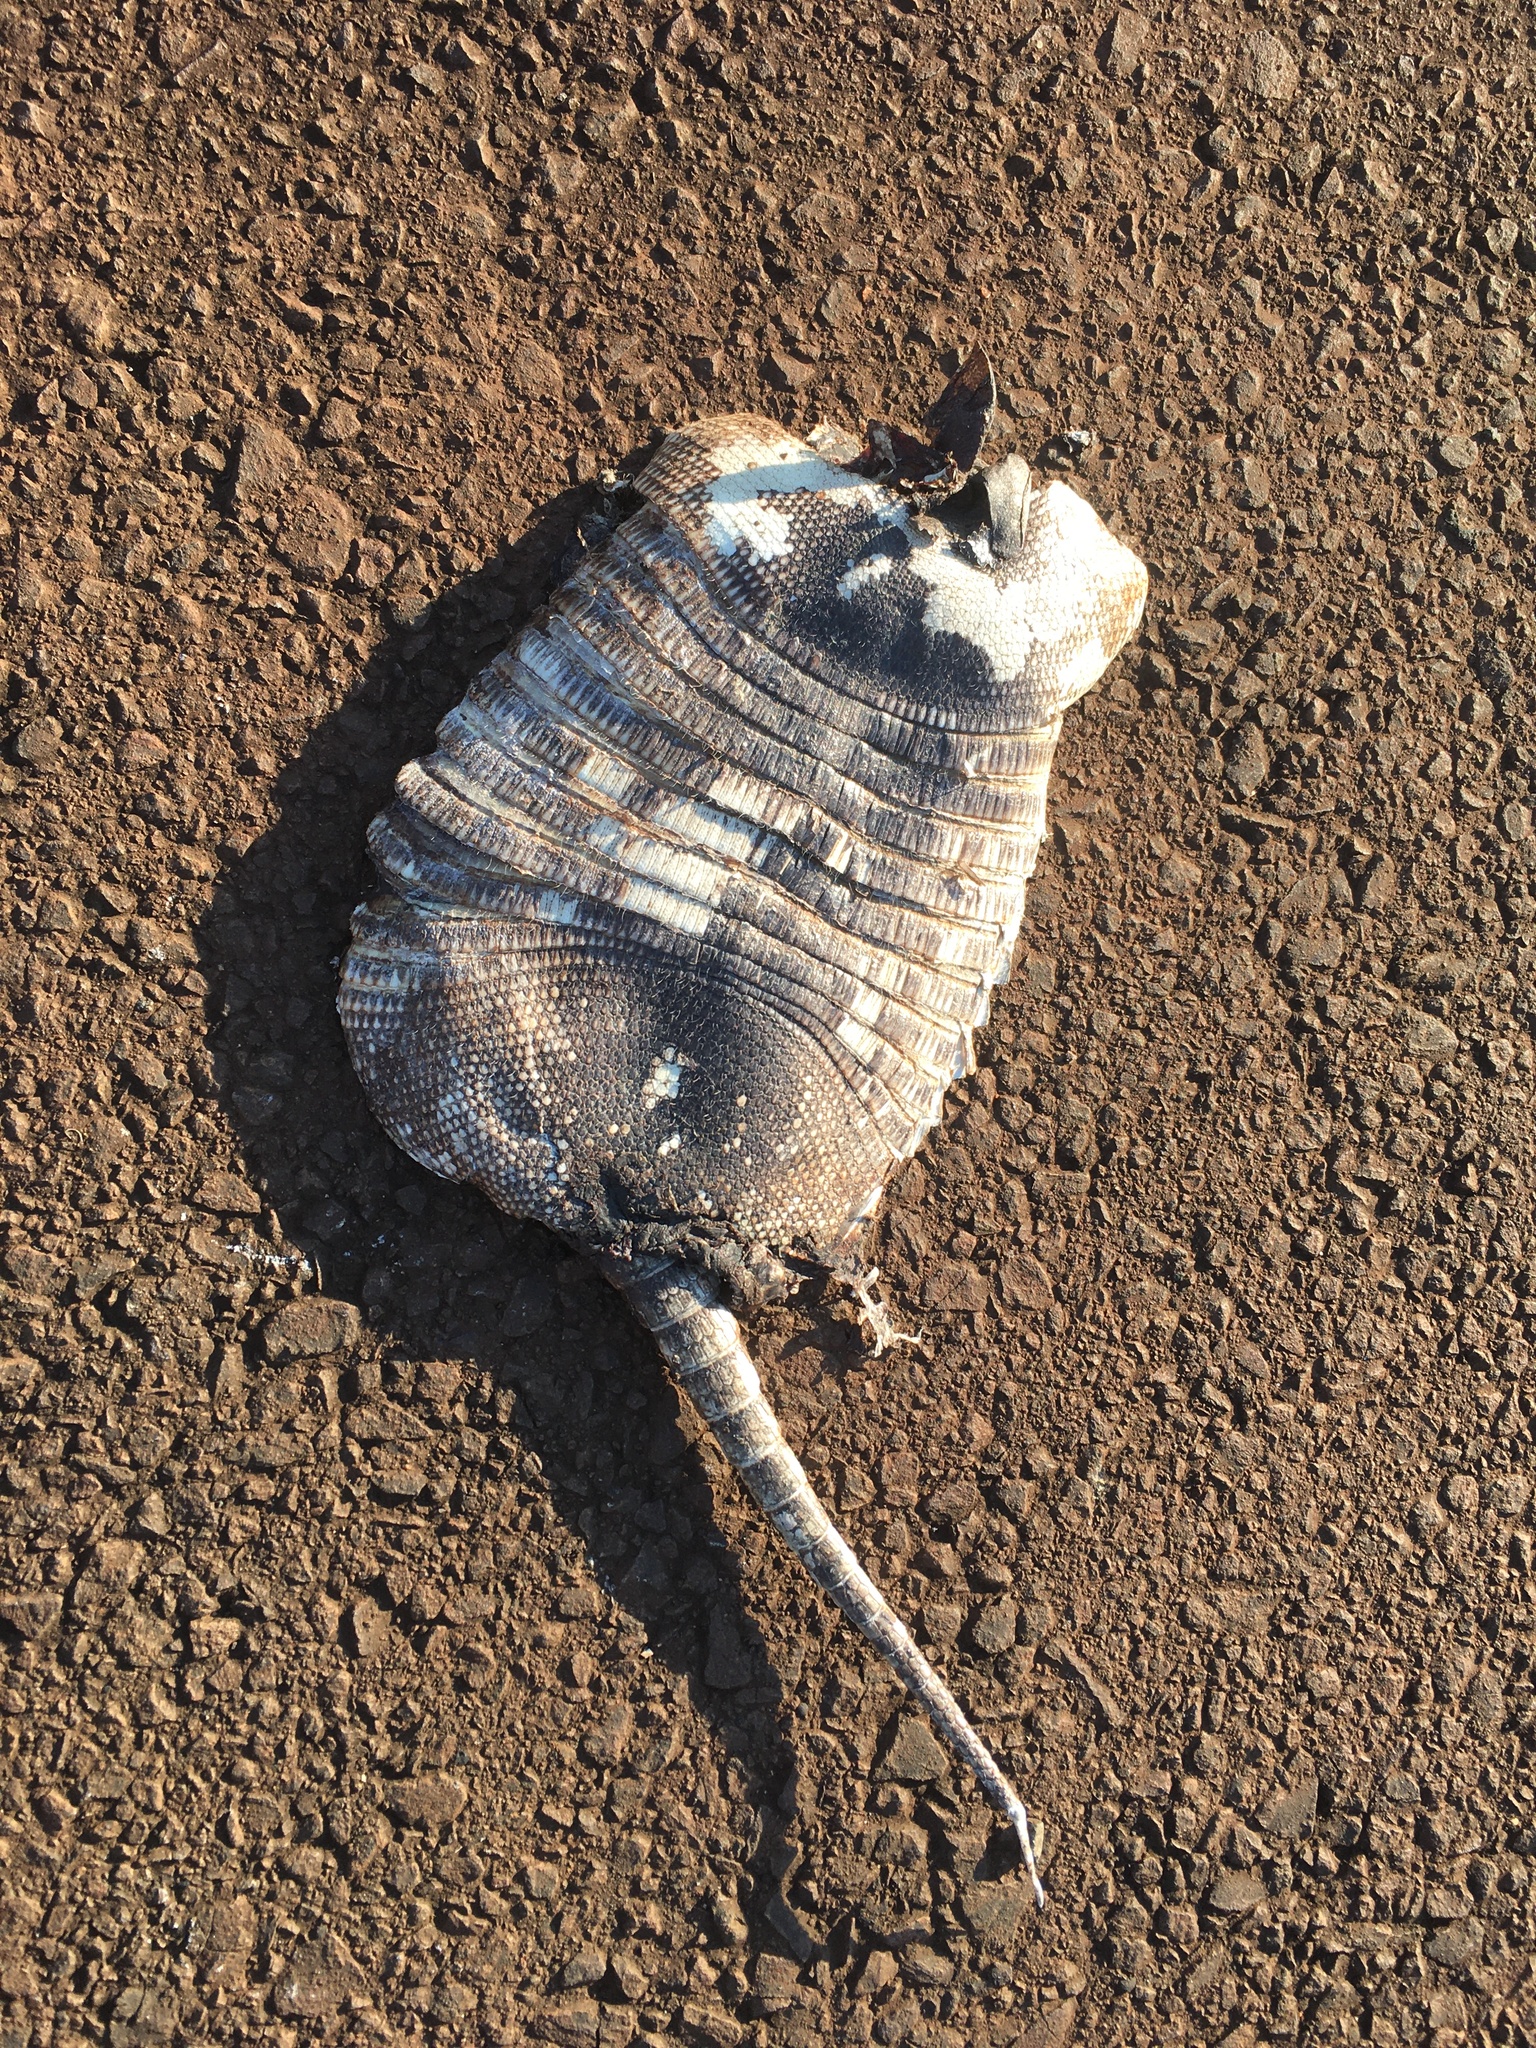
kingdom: Animalia
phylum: Chordata
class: Mammalia
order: Cingulata
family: Dasypodidae
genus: Dasypus
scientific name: Dasypus novemcinctus
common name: Nine-banded armadillo
